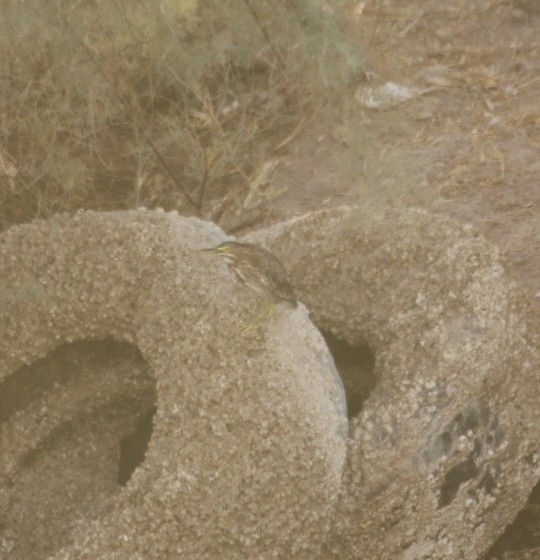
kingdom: Animalia
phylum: Chordata
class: Aves
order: Pelecaniformes
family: Ardeidae
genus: Butorides
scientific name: Butorides virescens
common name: Green heron
